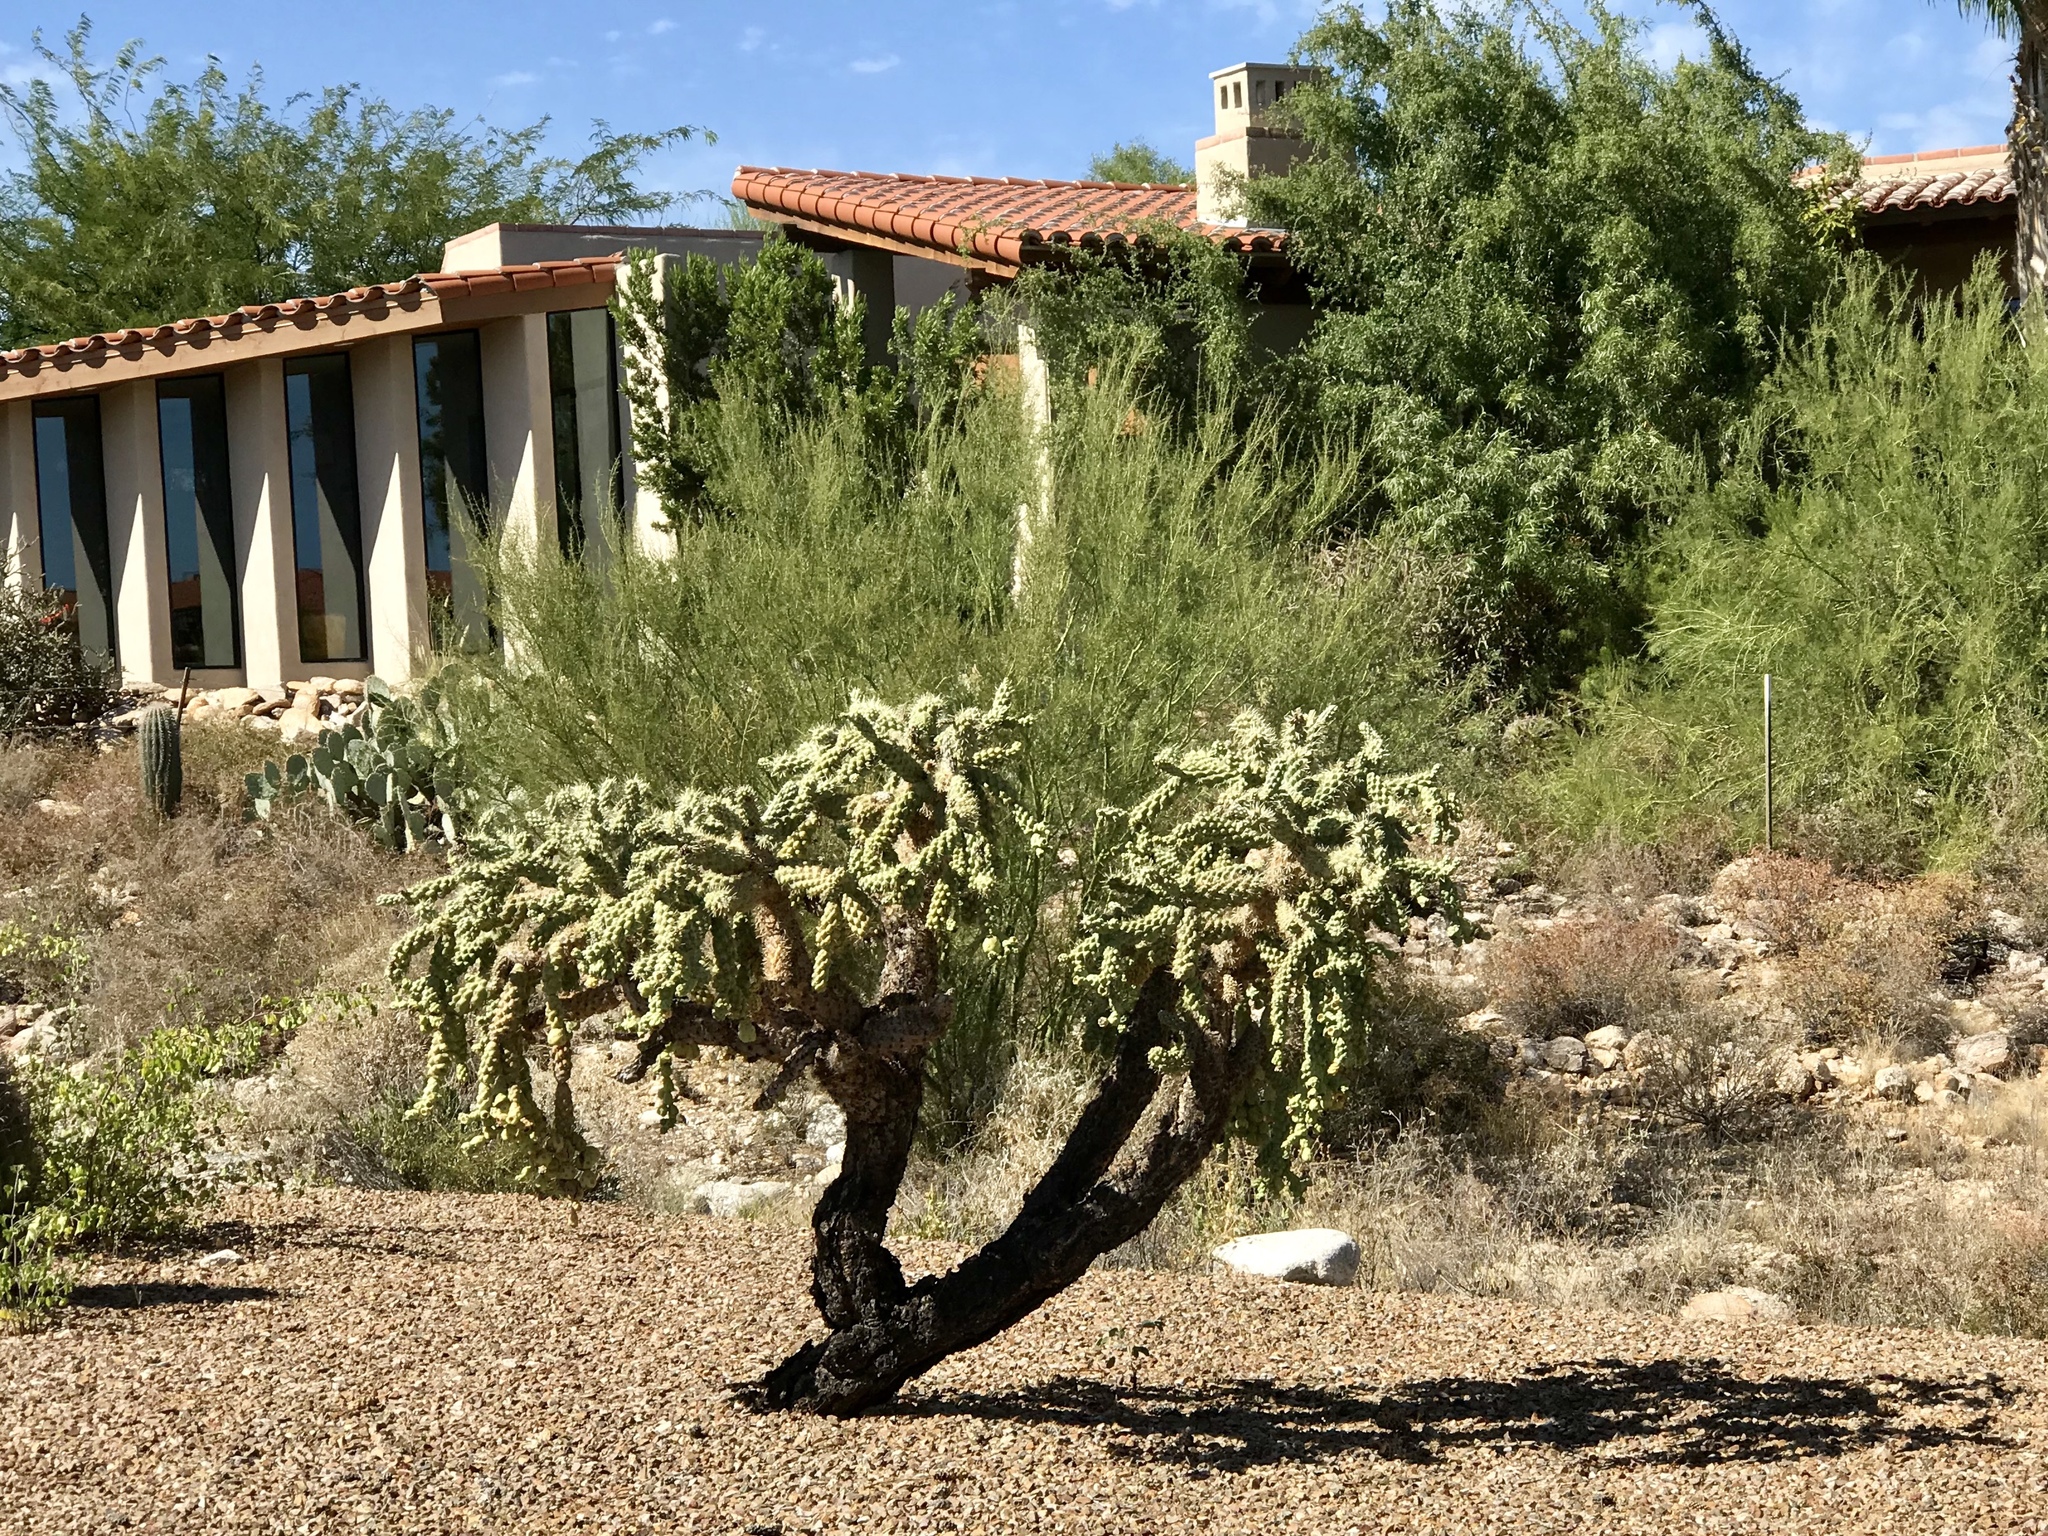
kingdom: Plantae
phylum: Tracheophyta
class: Magnoliopsida
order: Caryophyllales
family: Cactaceae
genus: Cylindropuntia
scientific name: Cylindropuntia fulgida
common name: Jumping cholla
